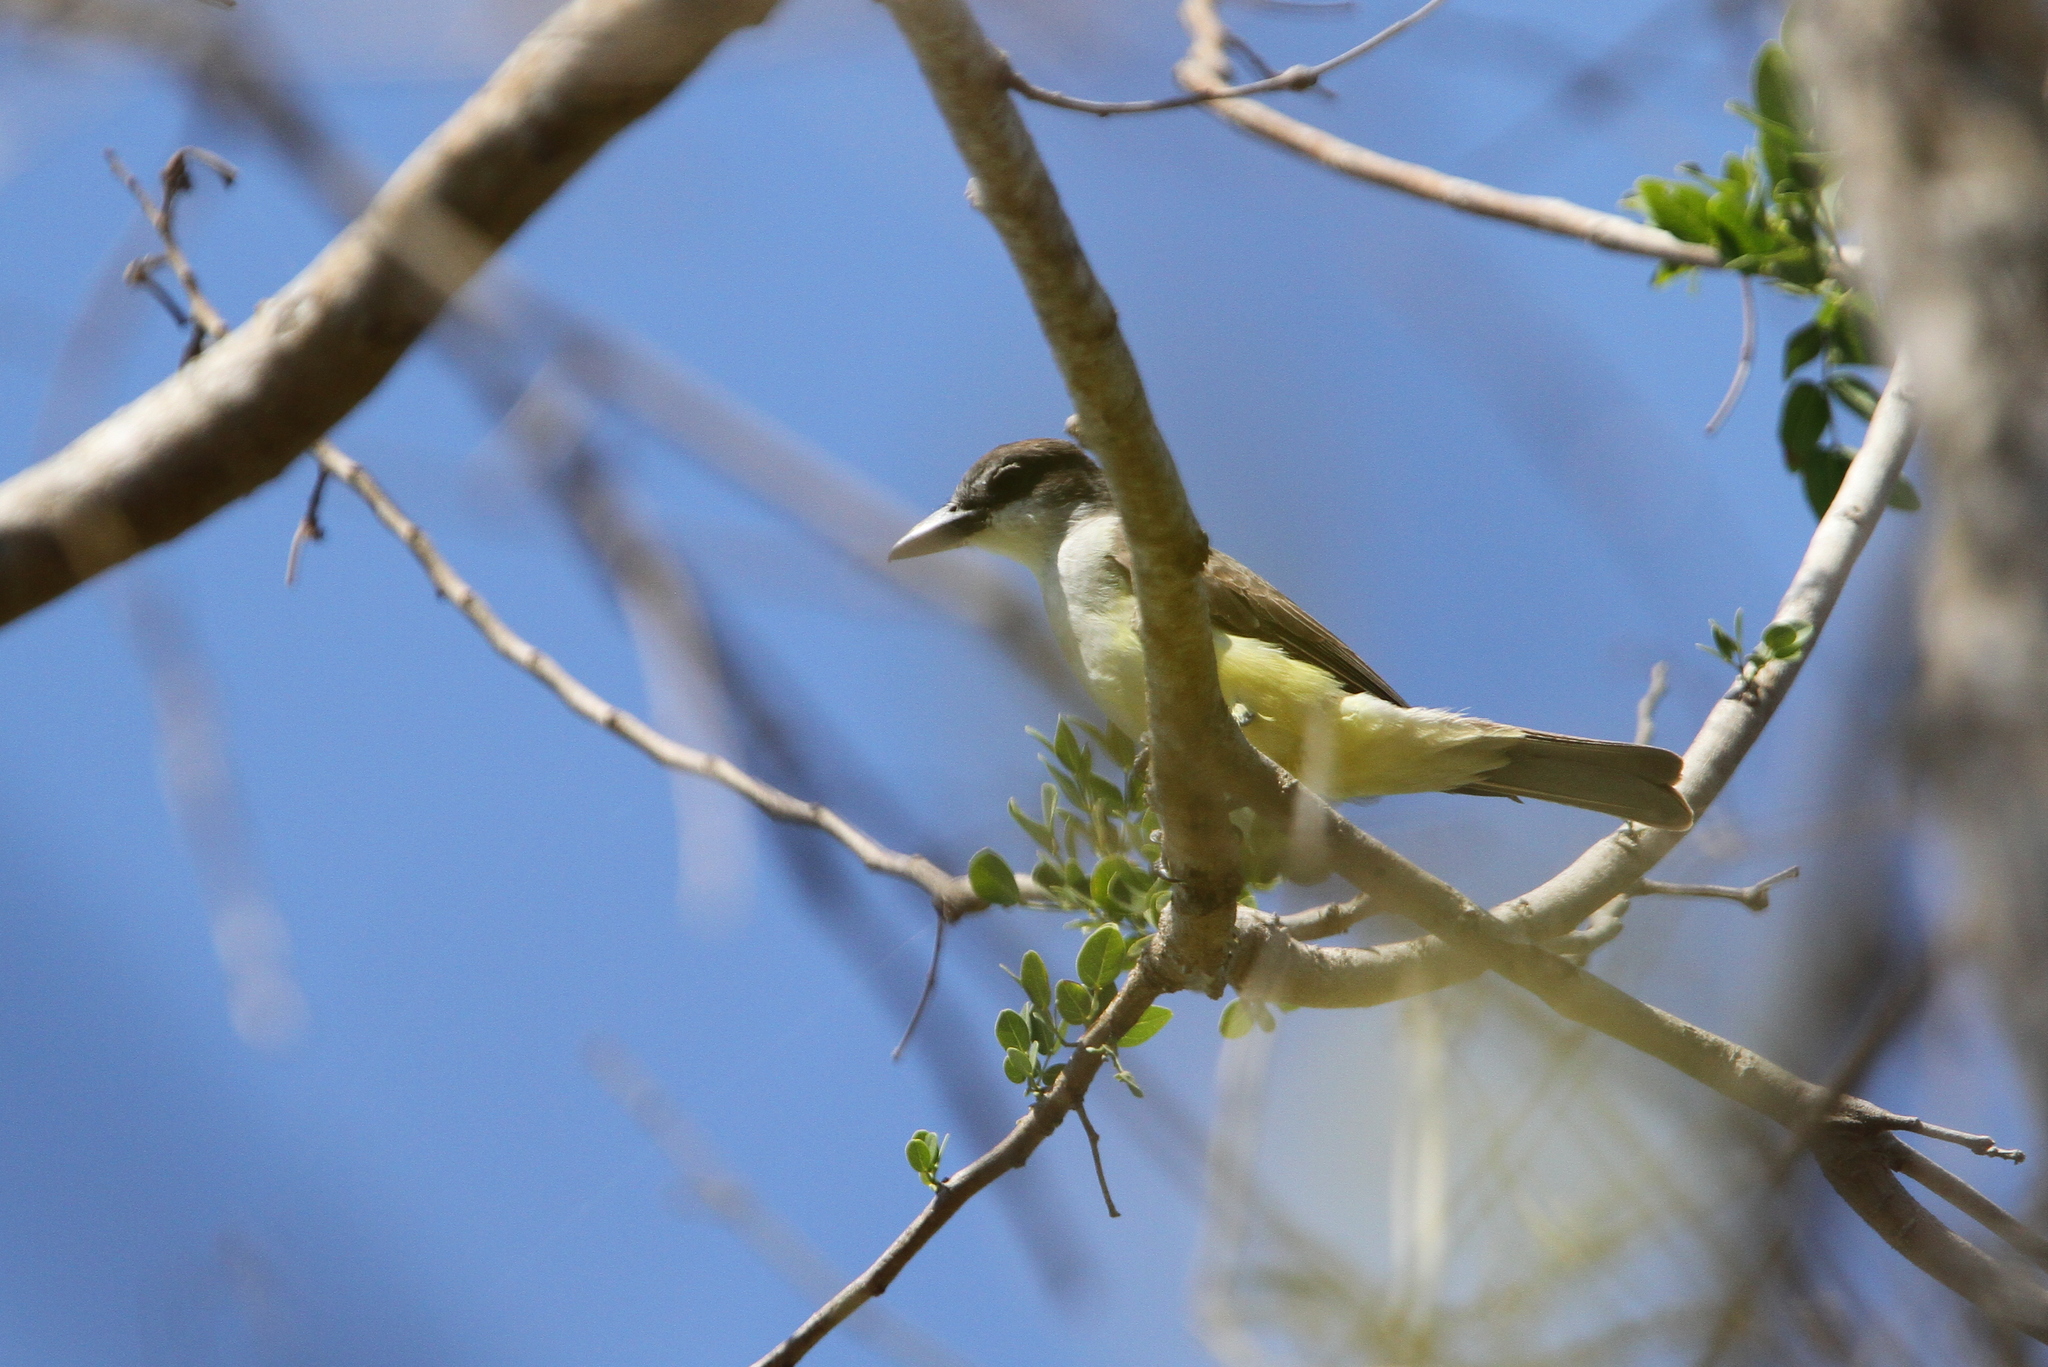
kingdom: Animalia
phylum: Chordata
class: Aves
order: Passeriformes
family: Tyrannidae
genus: Tyrannus
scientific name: Tyrannus crassirostris
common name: Thick-billed kingbird
